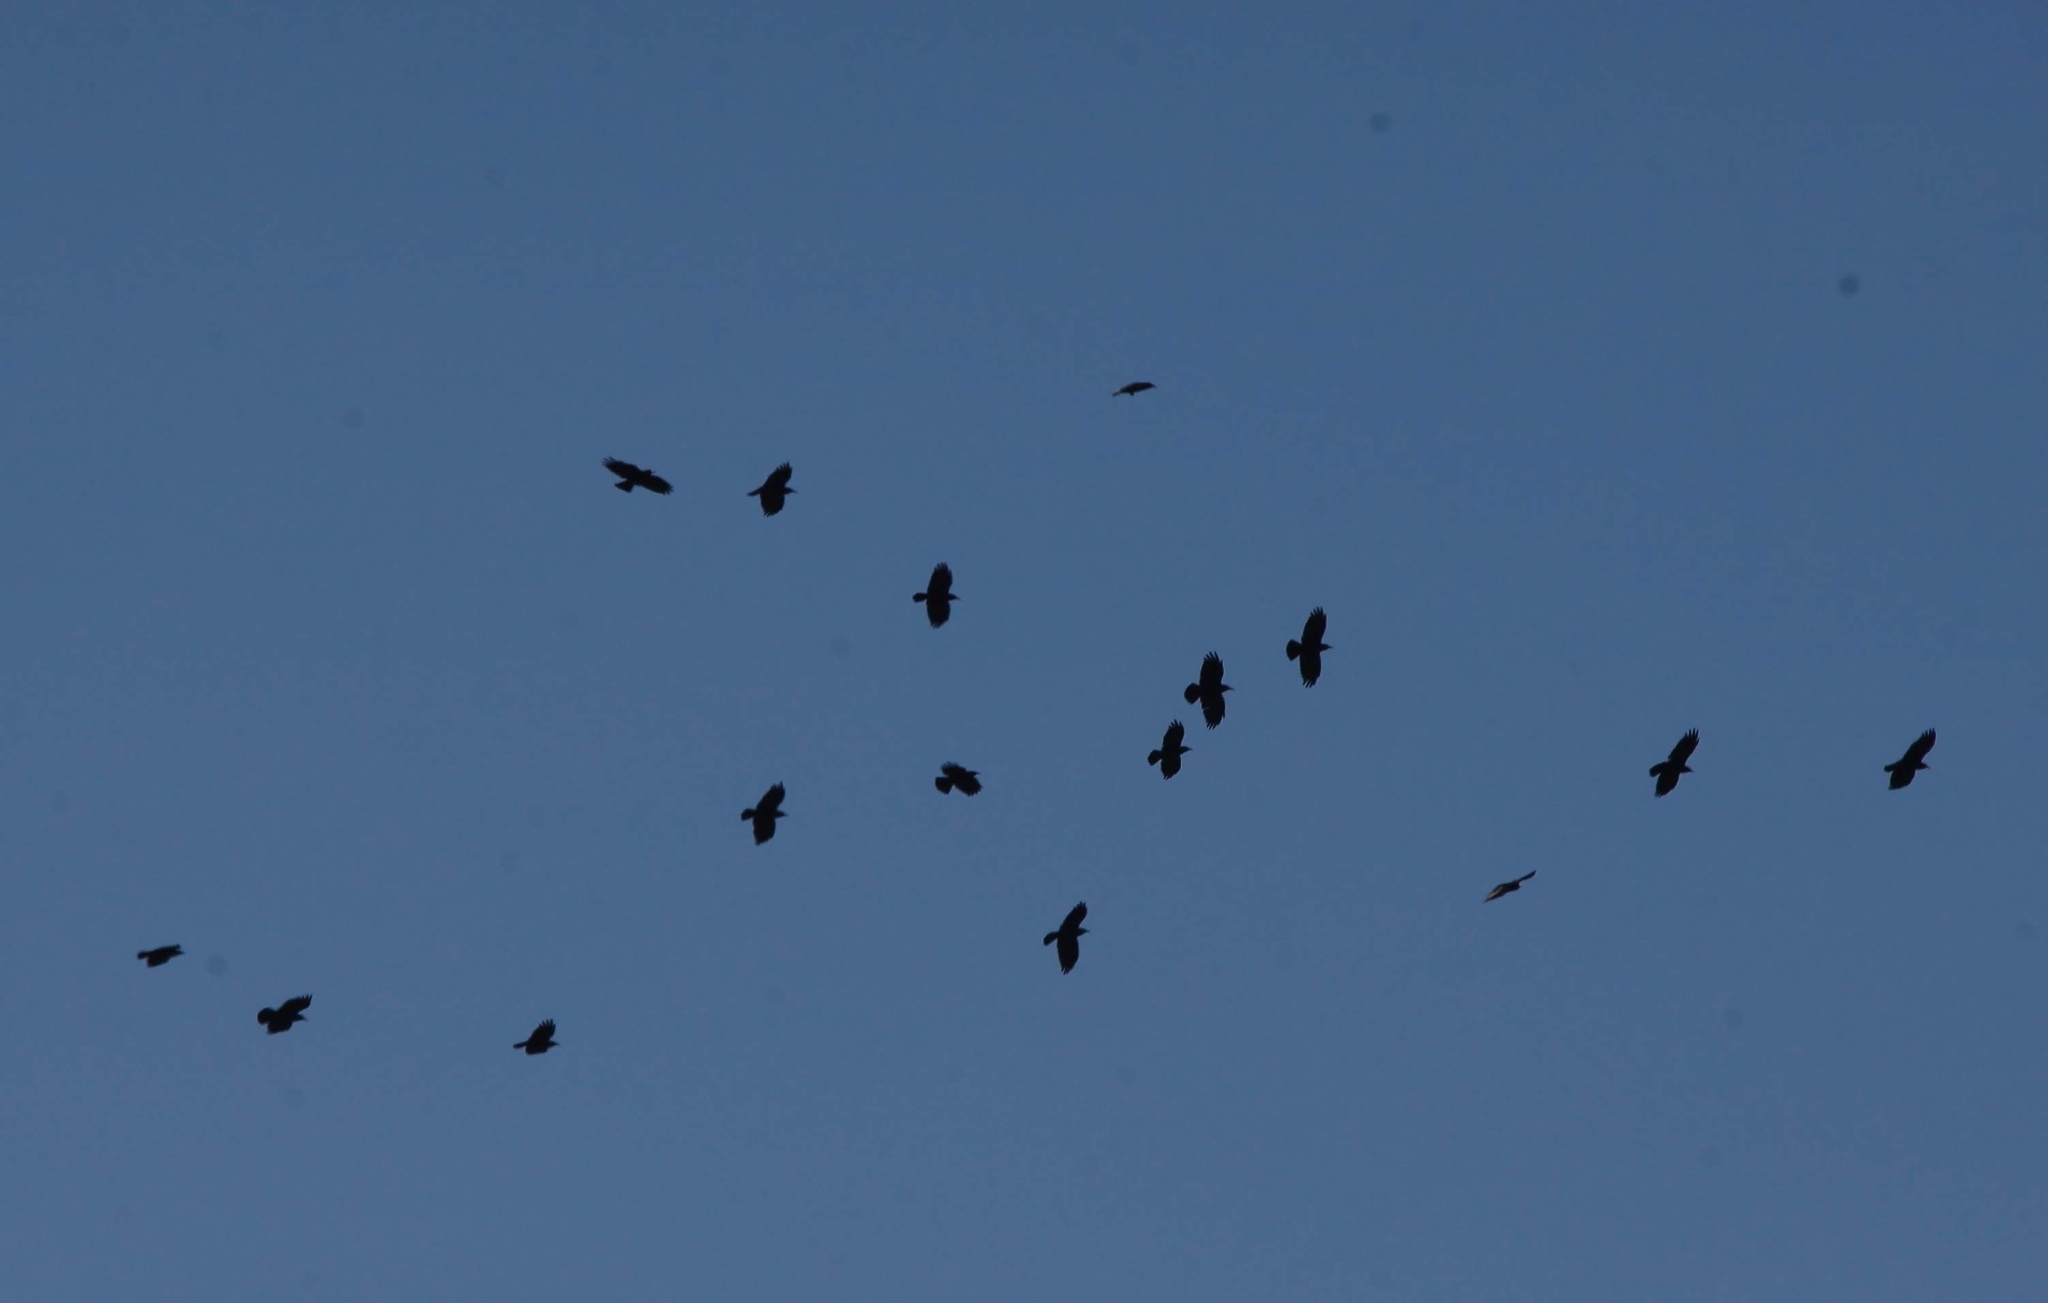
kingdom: Animalia
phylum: Chordata
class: Aves
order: Passeriformes
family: Corvidae
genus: Pyrrhocorax
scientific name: Pyrrhocorax pyrrhocorax
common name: Red-billed chough
